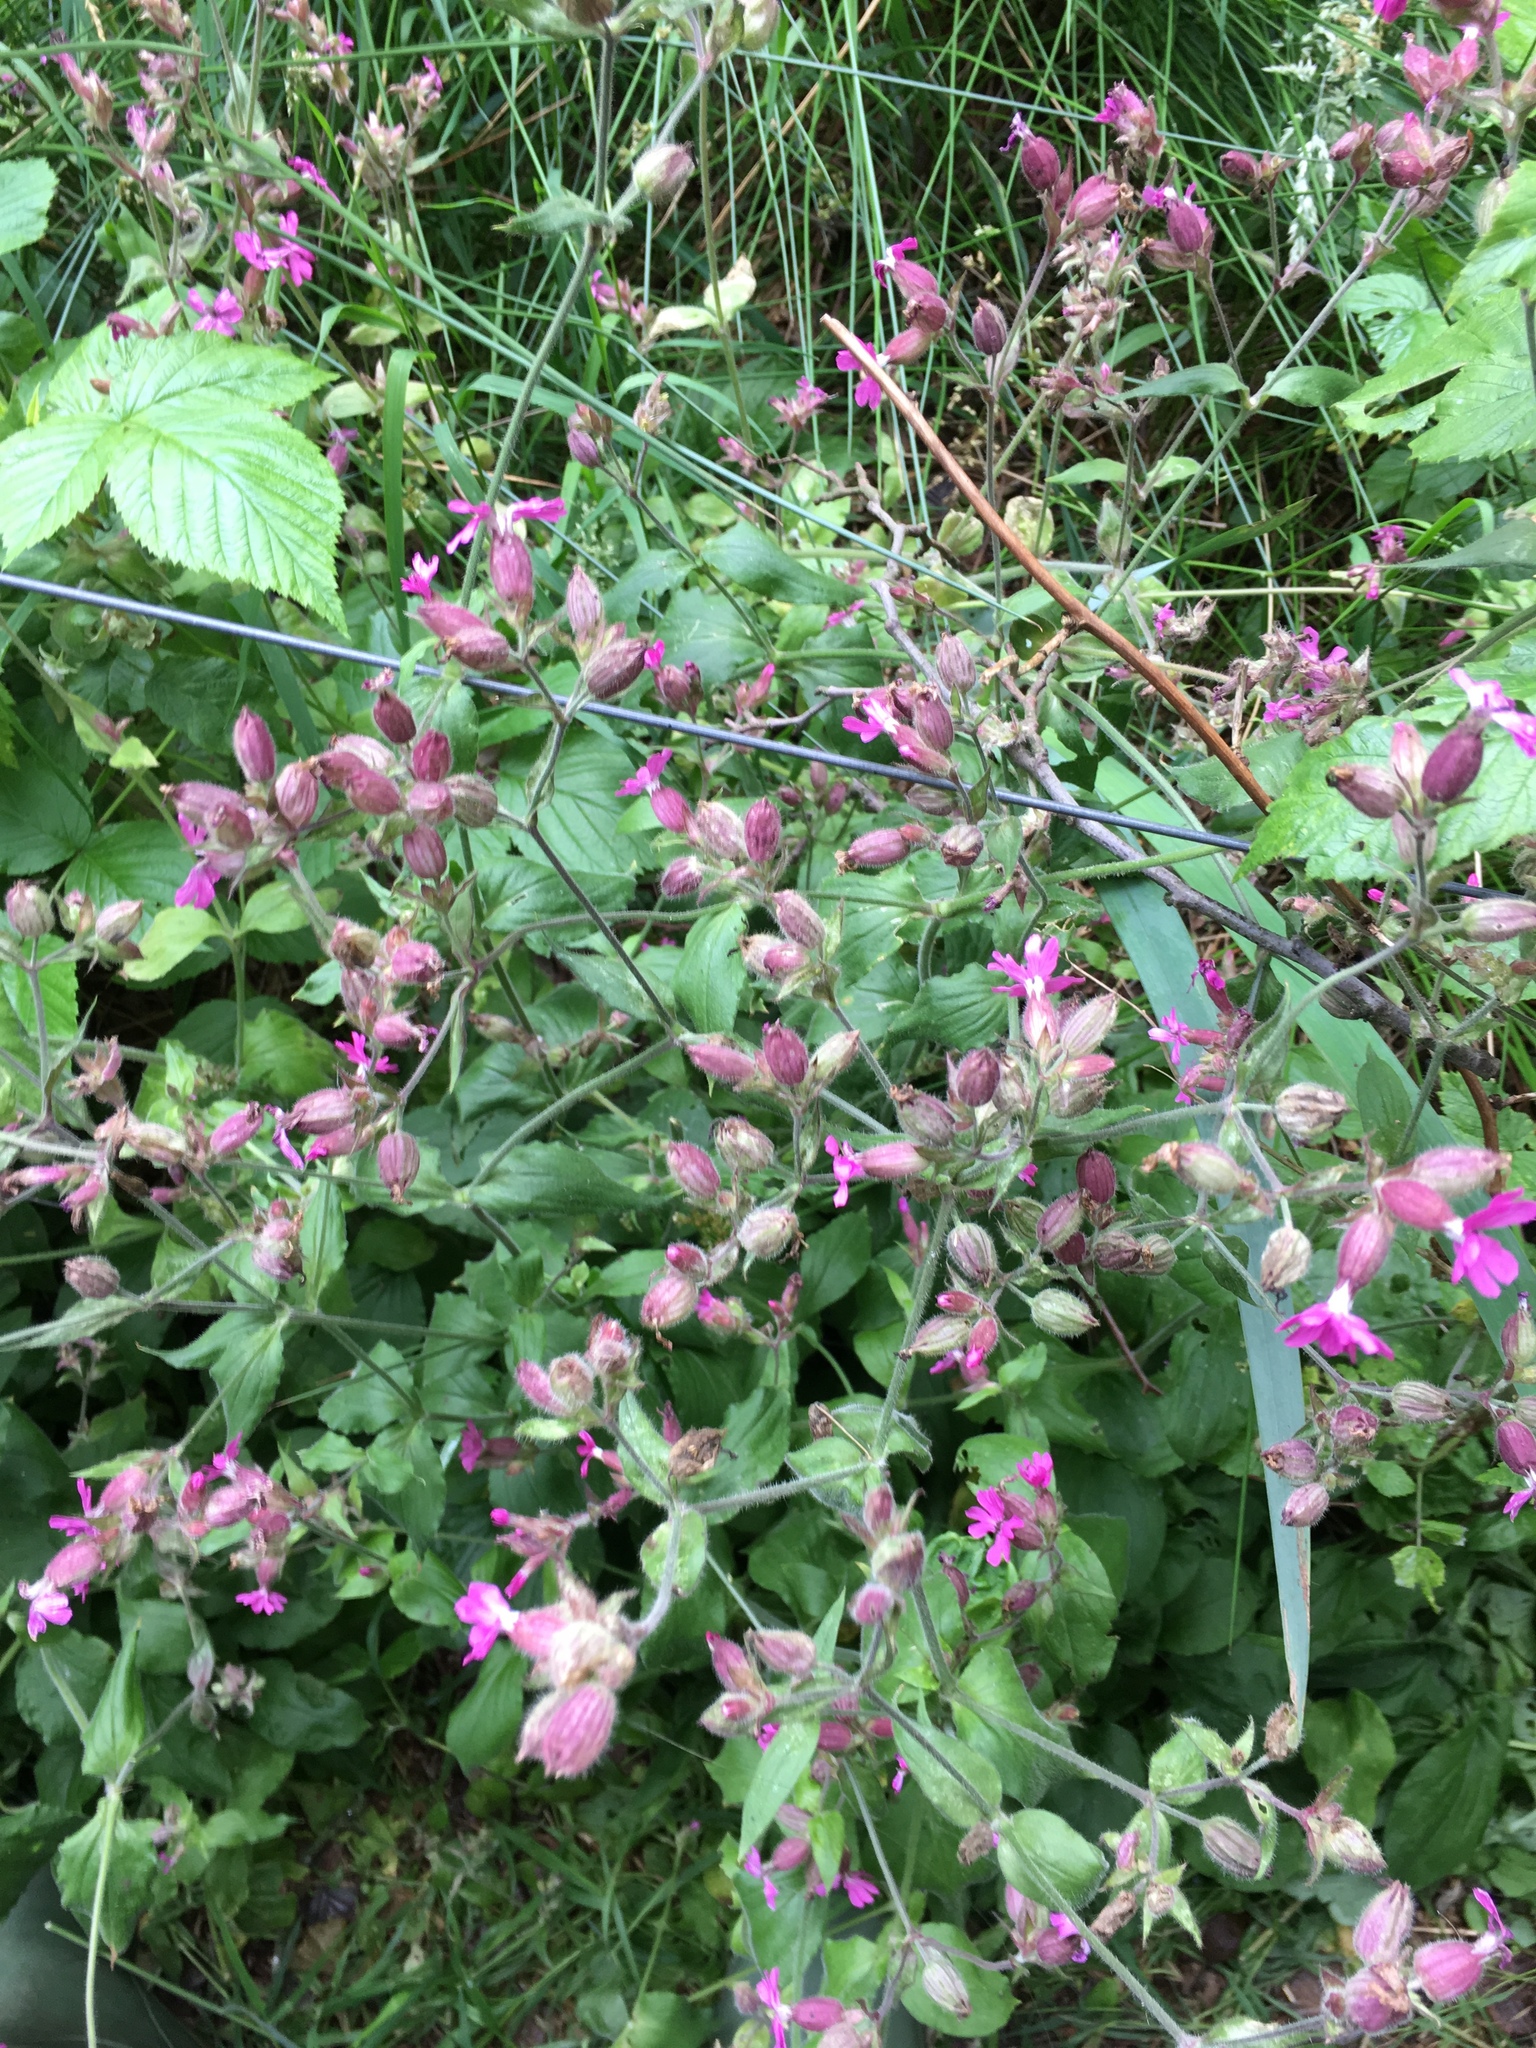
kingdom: Plantae
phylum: Tracheophyta
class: Magnoliopsida
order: Caryophyllales
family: Caryophyllaceae
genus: Silene
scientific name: Silene dioica
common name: Red campion
